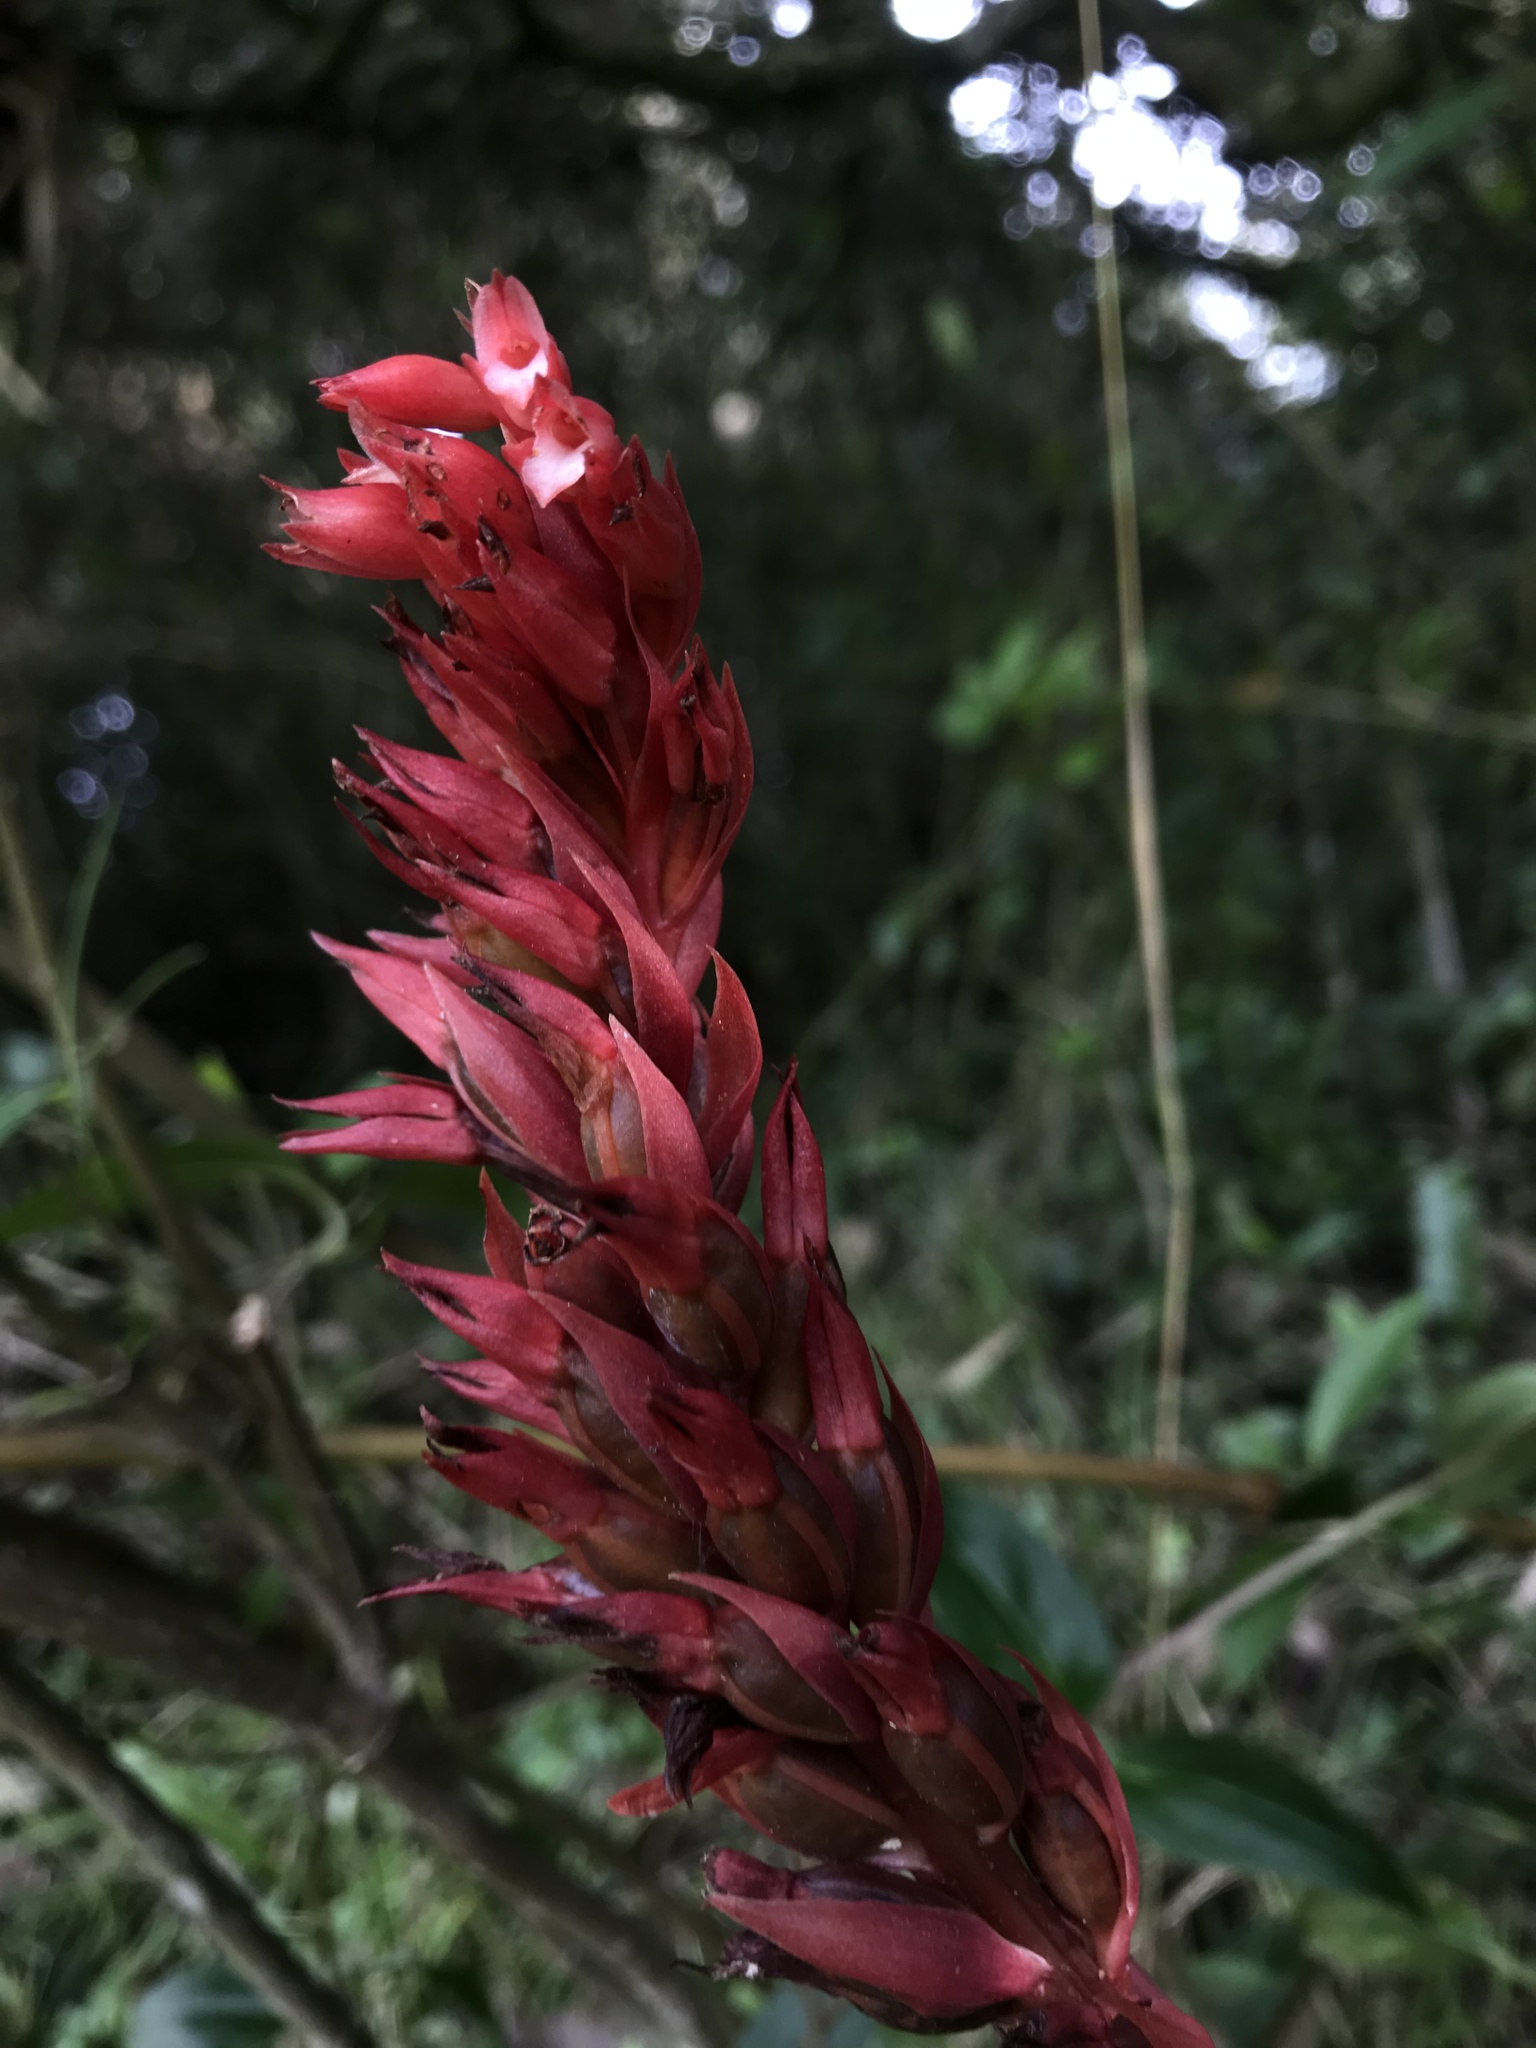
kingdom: Plantae
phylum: Tracheophyta
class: Liliopsida
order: Asparagales
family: Orchidaceae
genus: Stenorrhynchos
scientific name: Stenorrhynchos albidomaculatum
